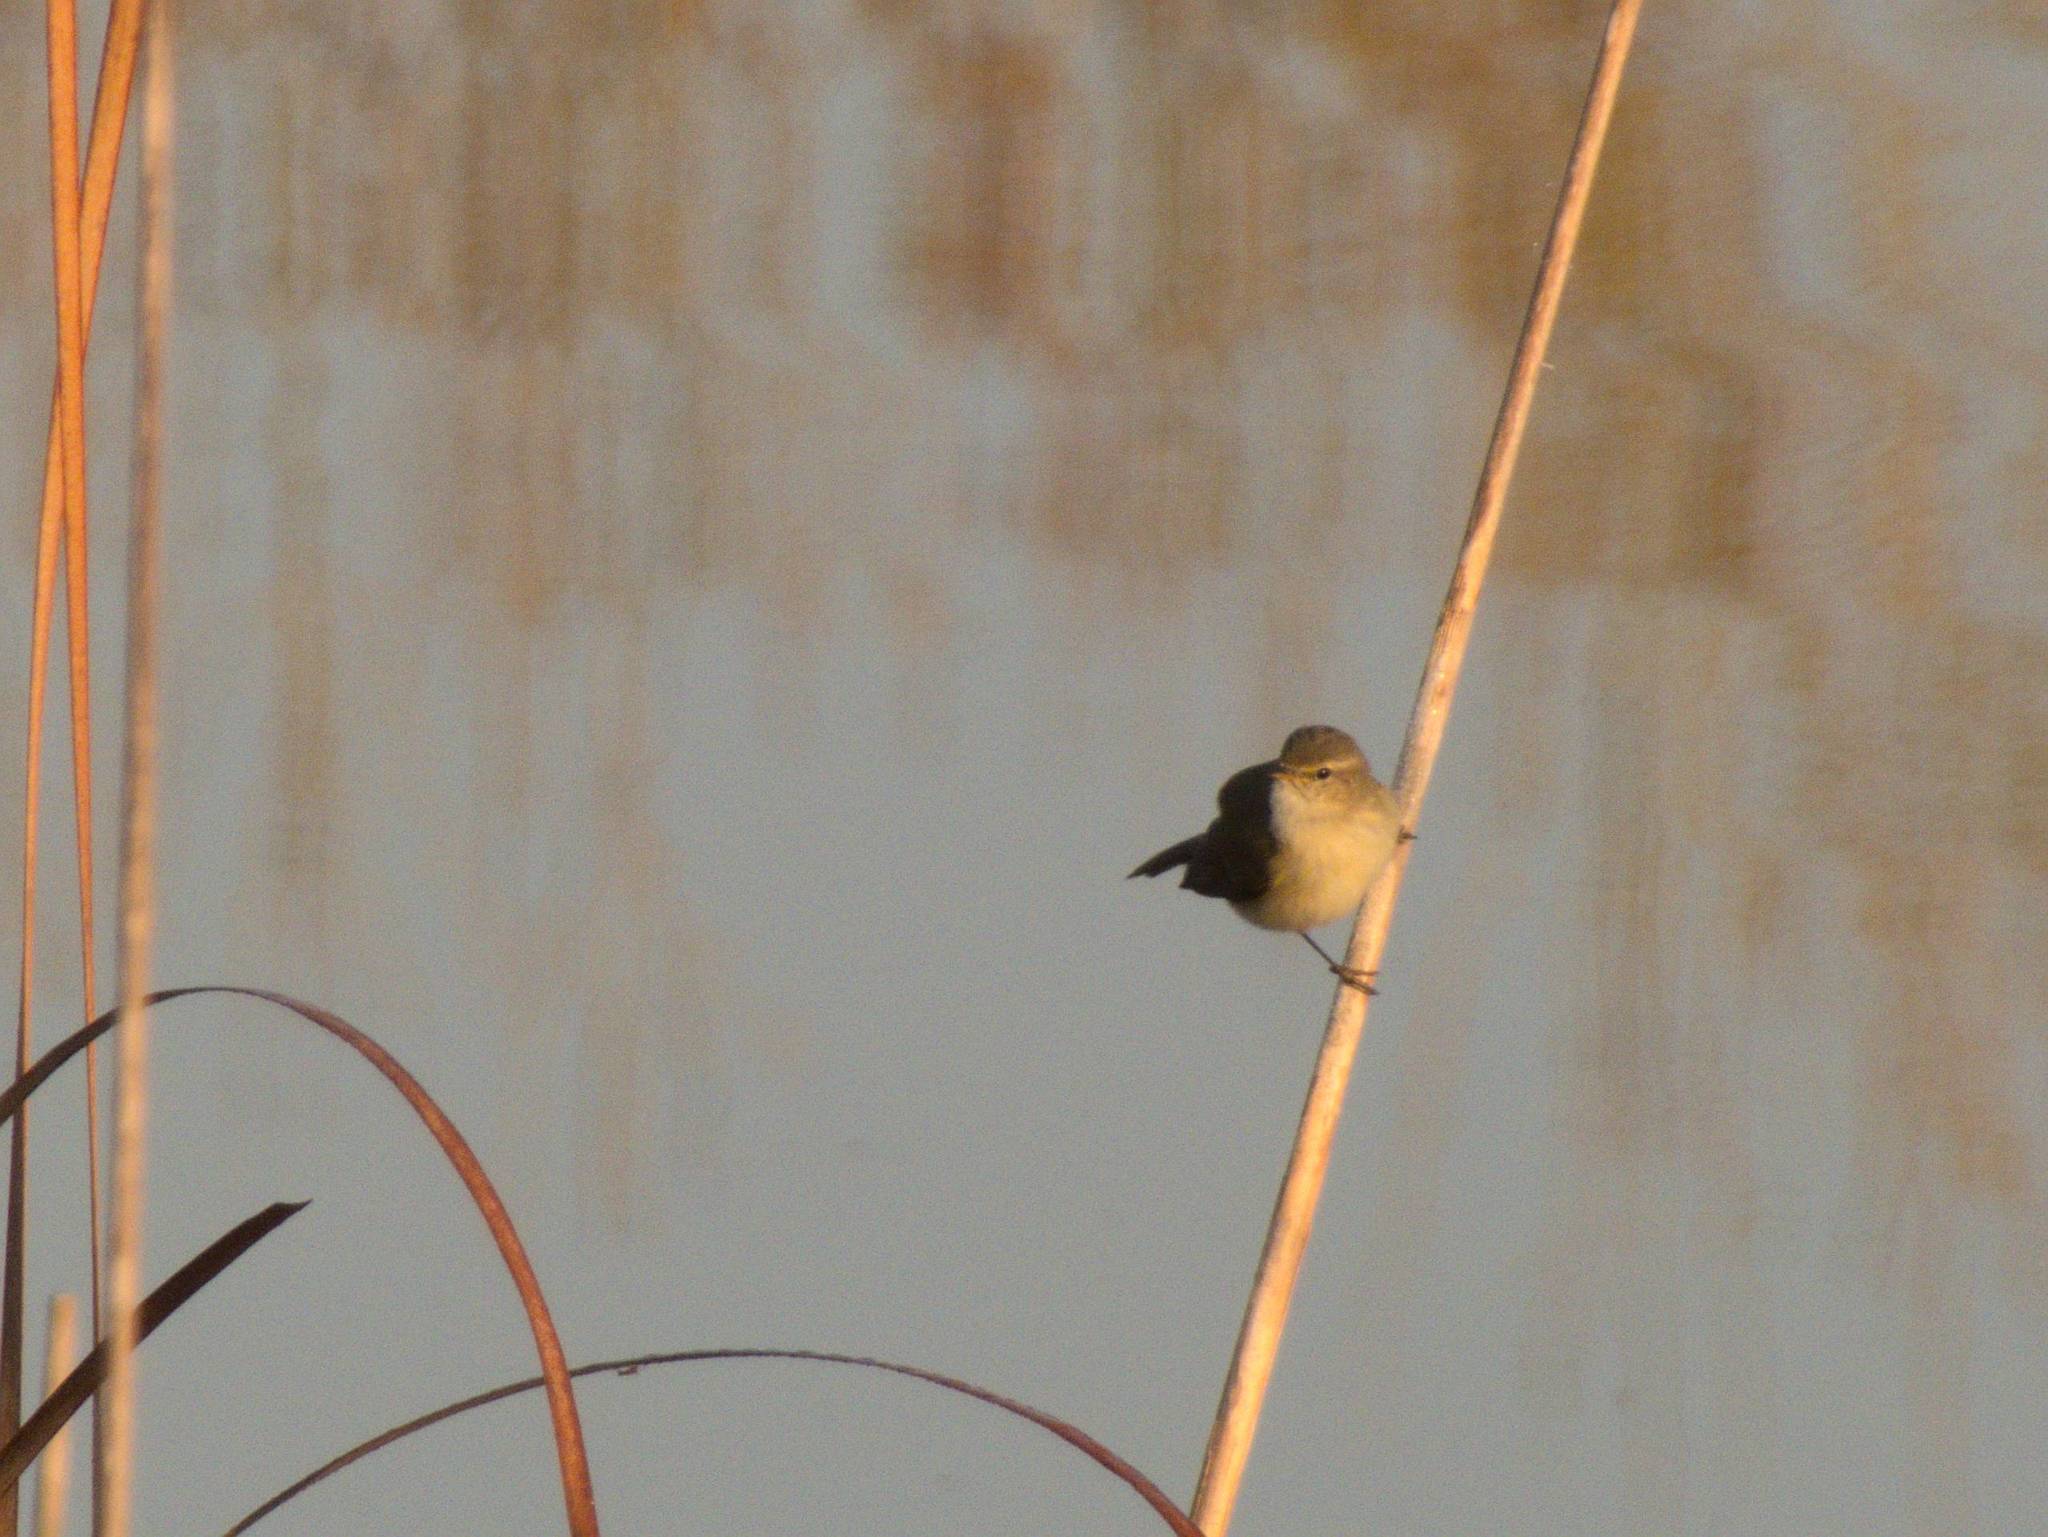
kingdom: Animalia
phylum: Chordata
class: Aves
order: Passeriformes
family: Phylloscopidae
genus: Phylloscopus
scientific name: Phylloscopus collybita
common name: Common chiffchaff
